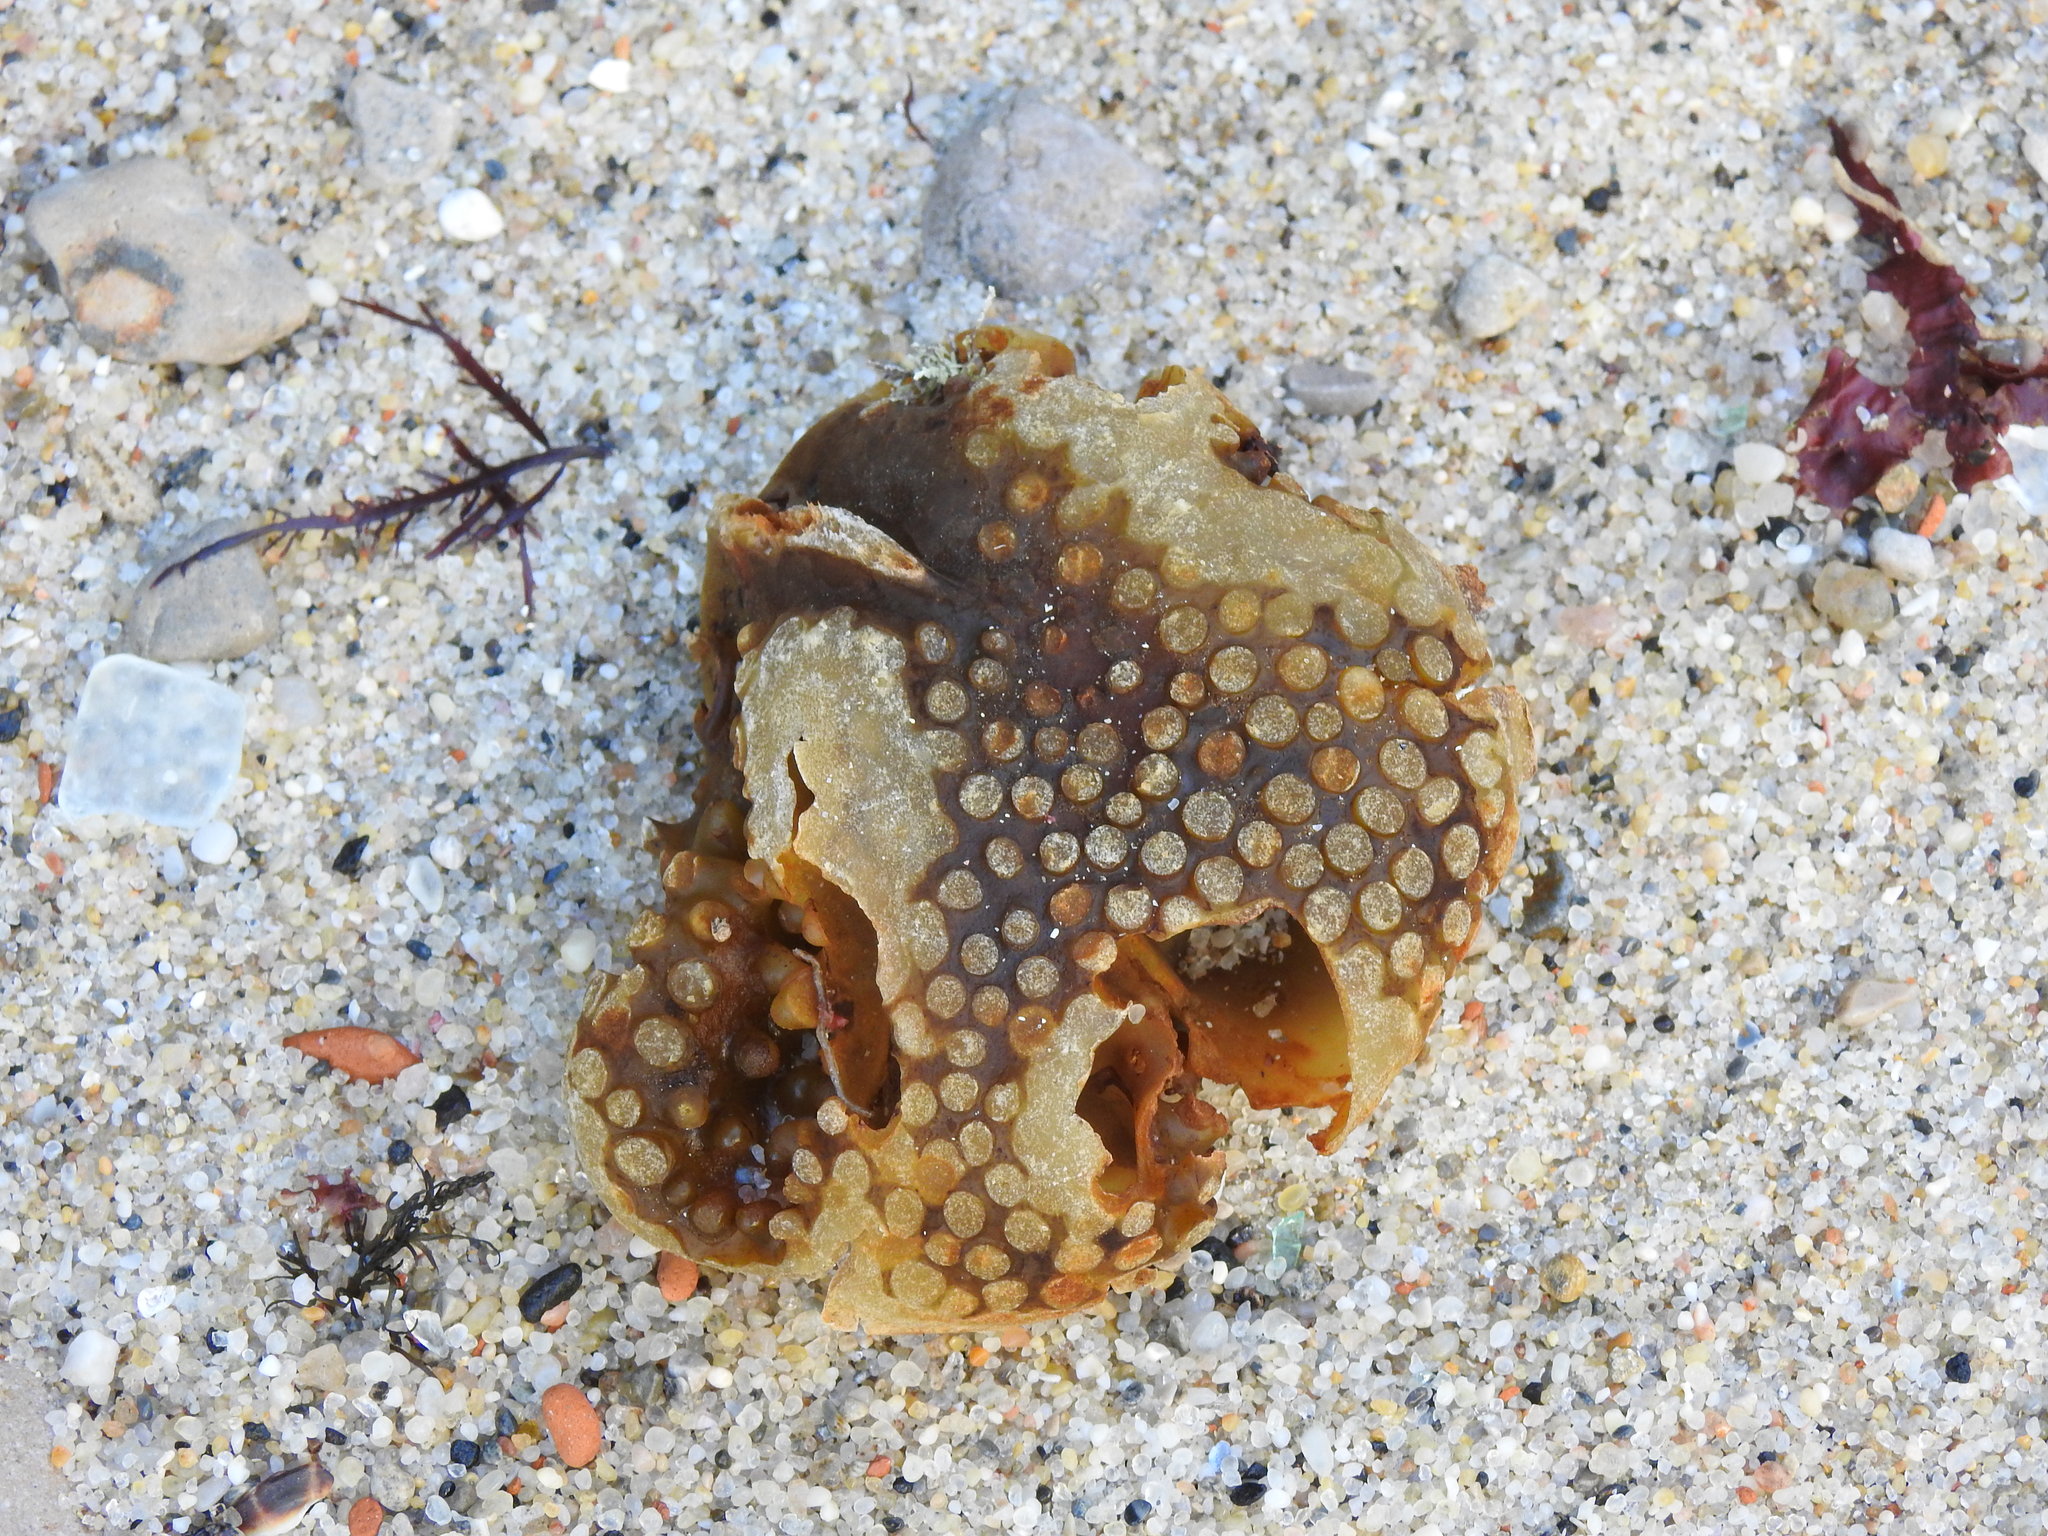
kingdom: Chromista
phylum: Ochrophyta
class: Phaeophyceae
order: Tilopteridales
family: Phyllariaceae
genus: Saccorhiza
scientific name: Saccorhiza polyschides
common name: Furbelows
